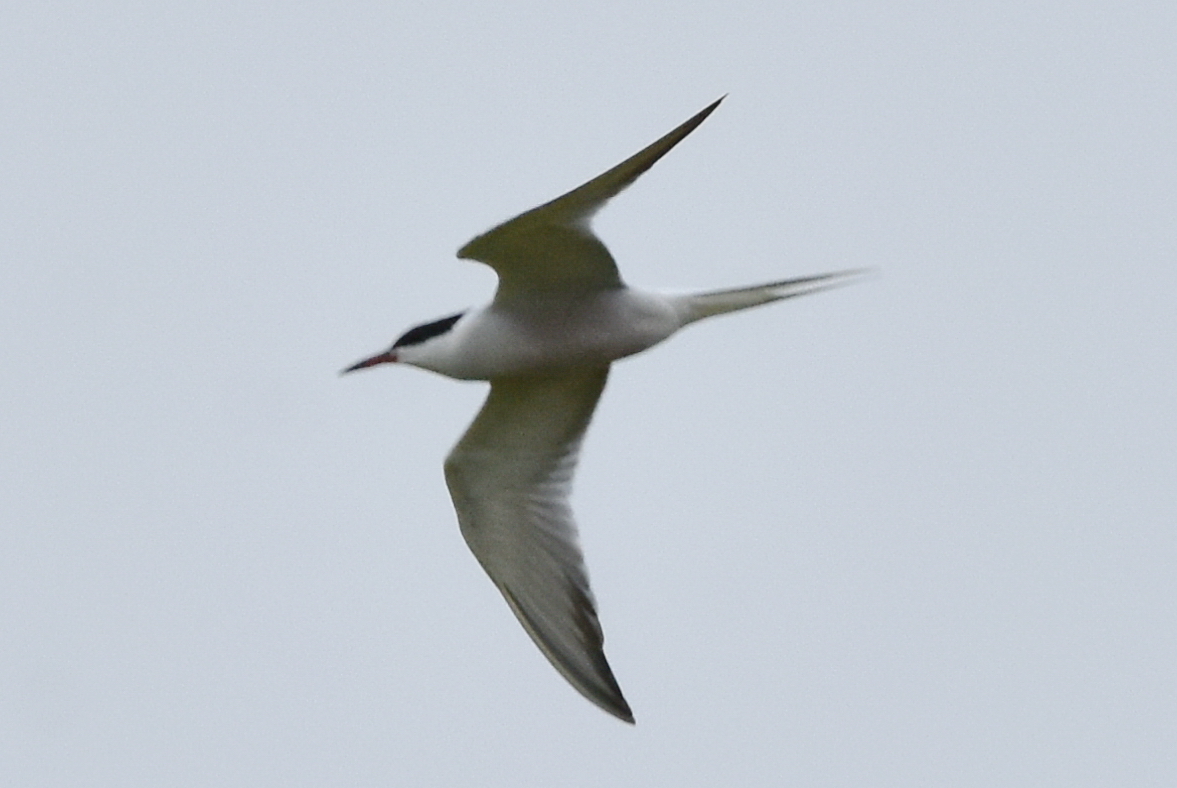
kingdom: Animalia
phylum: Chordata
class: Aves
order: Charadriiformes
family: Laridae
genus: Sterna
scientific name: Sterna hirundo
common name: Common tern
